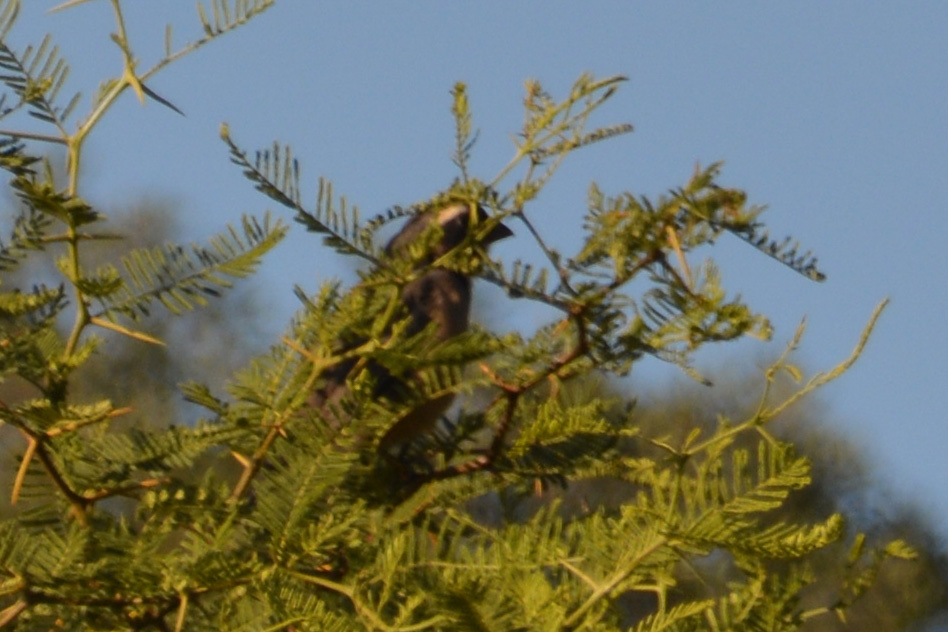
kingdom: Animalia
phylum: Chordata
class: Aves
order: Passeriformes
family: Thraupidae
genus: Saltator
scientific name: Saltator aurantiirostris
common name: Golden-billed saltator
